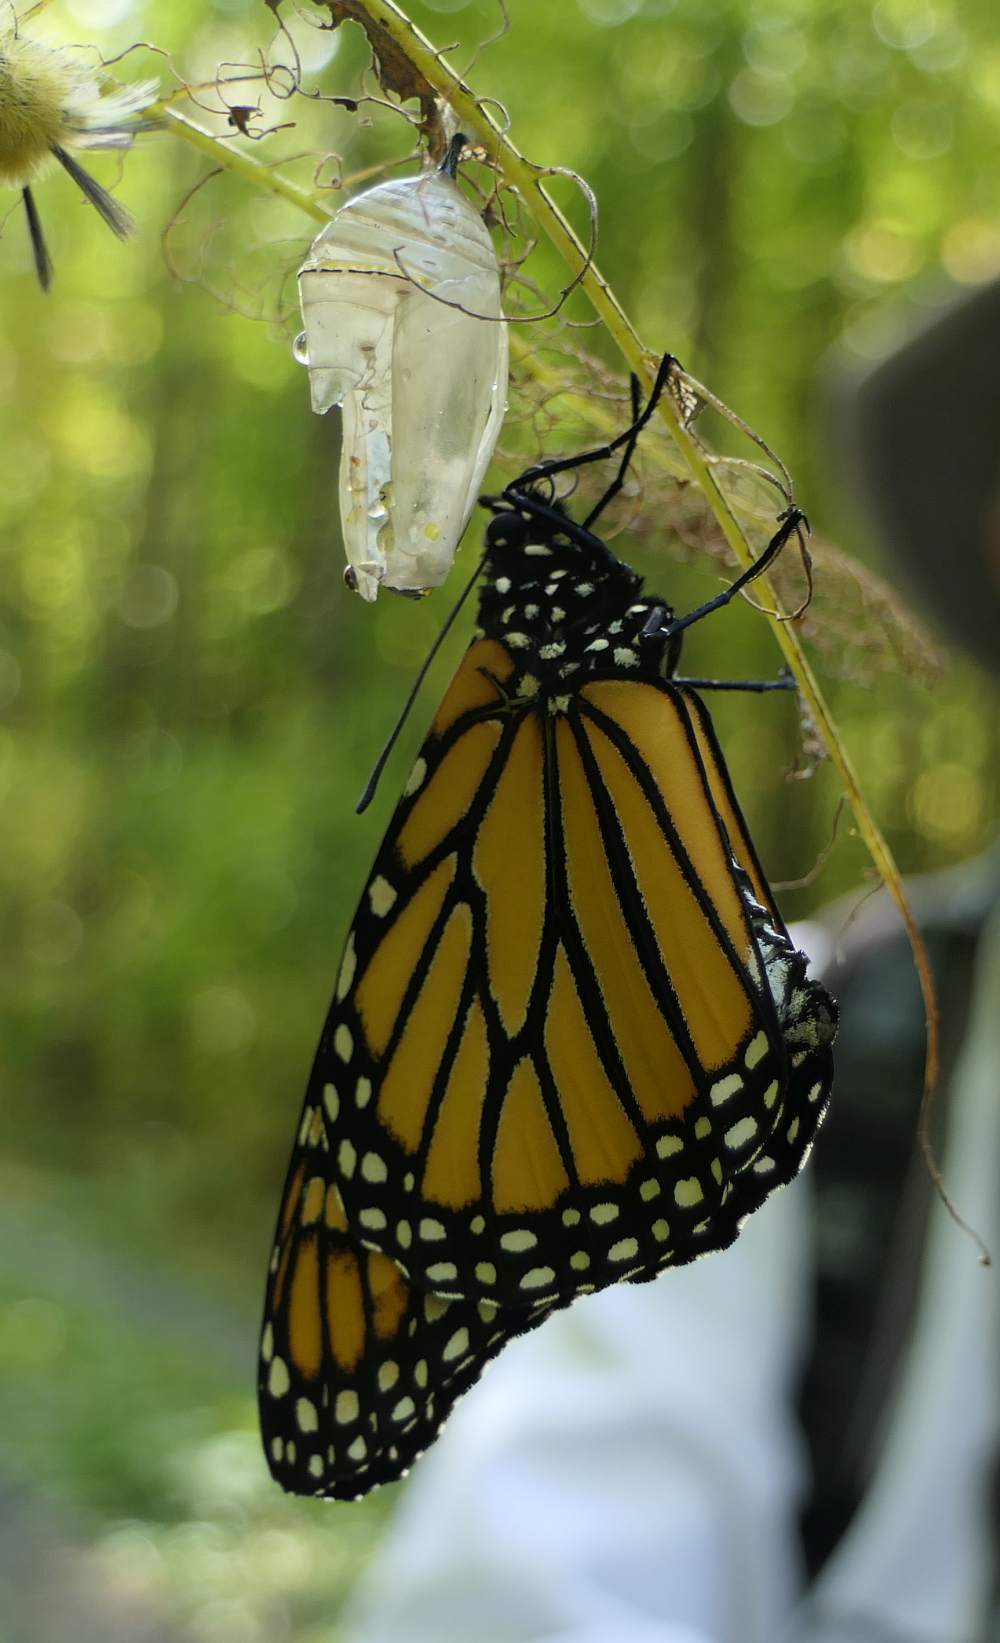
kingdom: Animalia
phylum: Arthropoda
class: Insecta
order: Lepidoptera
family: Nymphalidae
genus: Danaus
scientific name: Danaus plexippus
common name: Monarch
